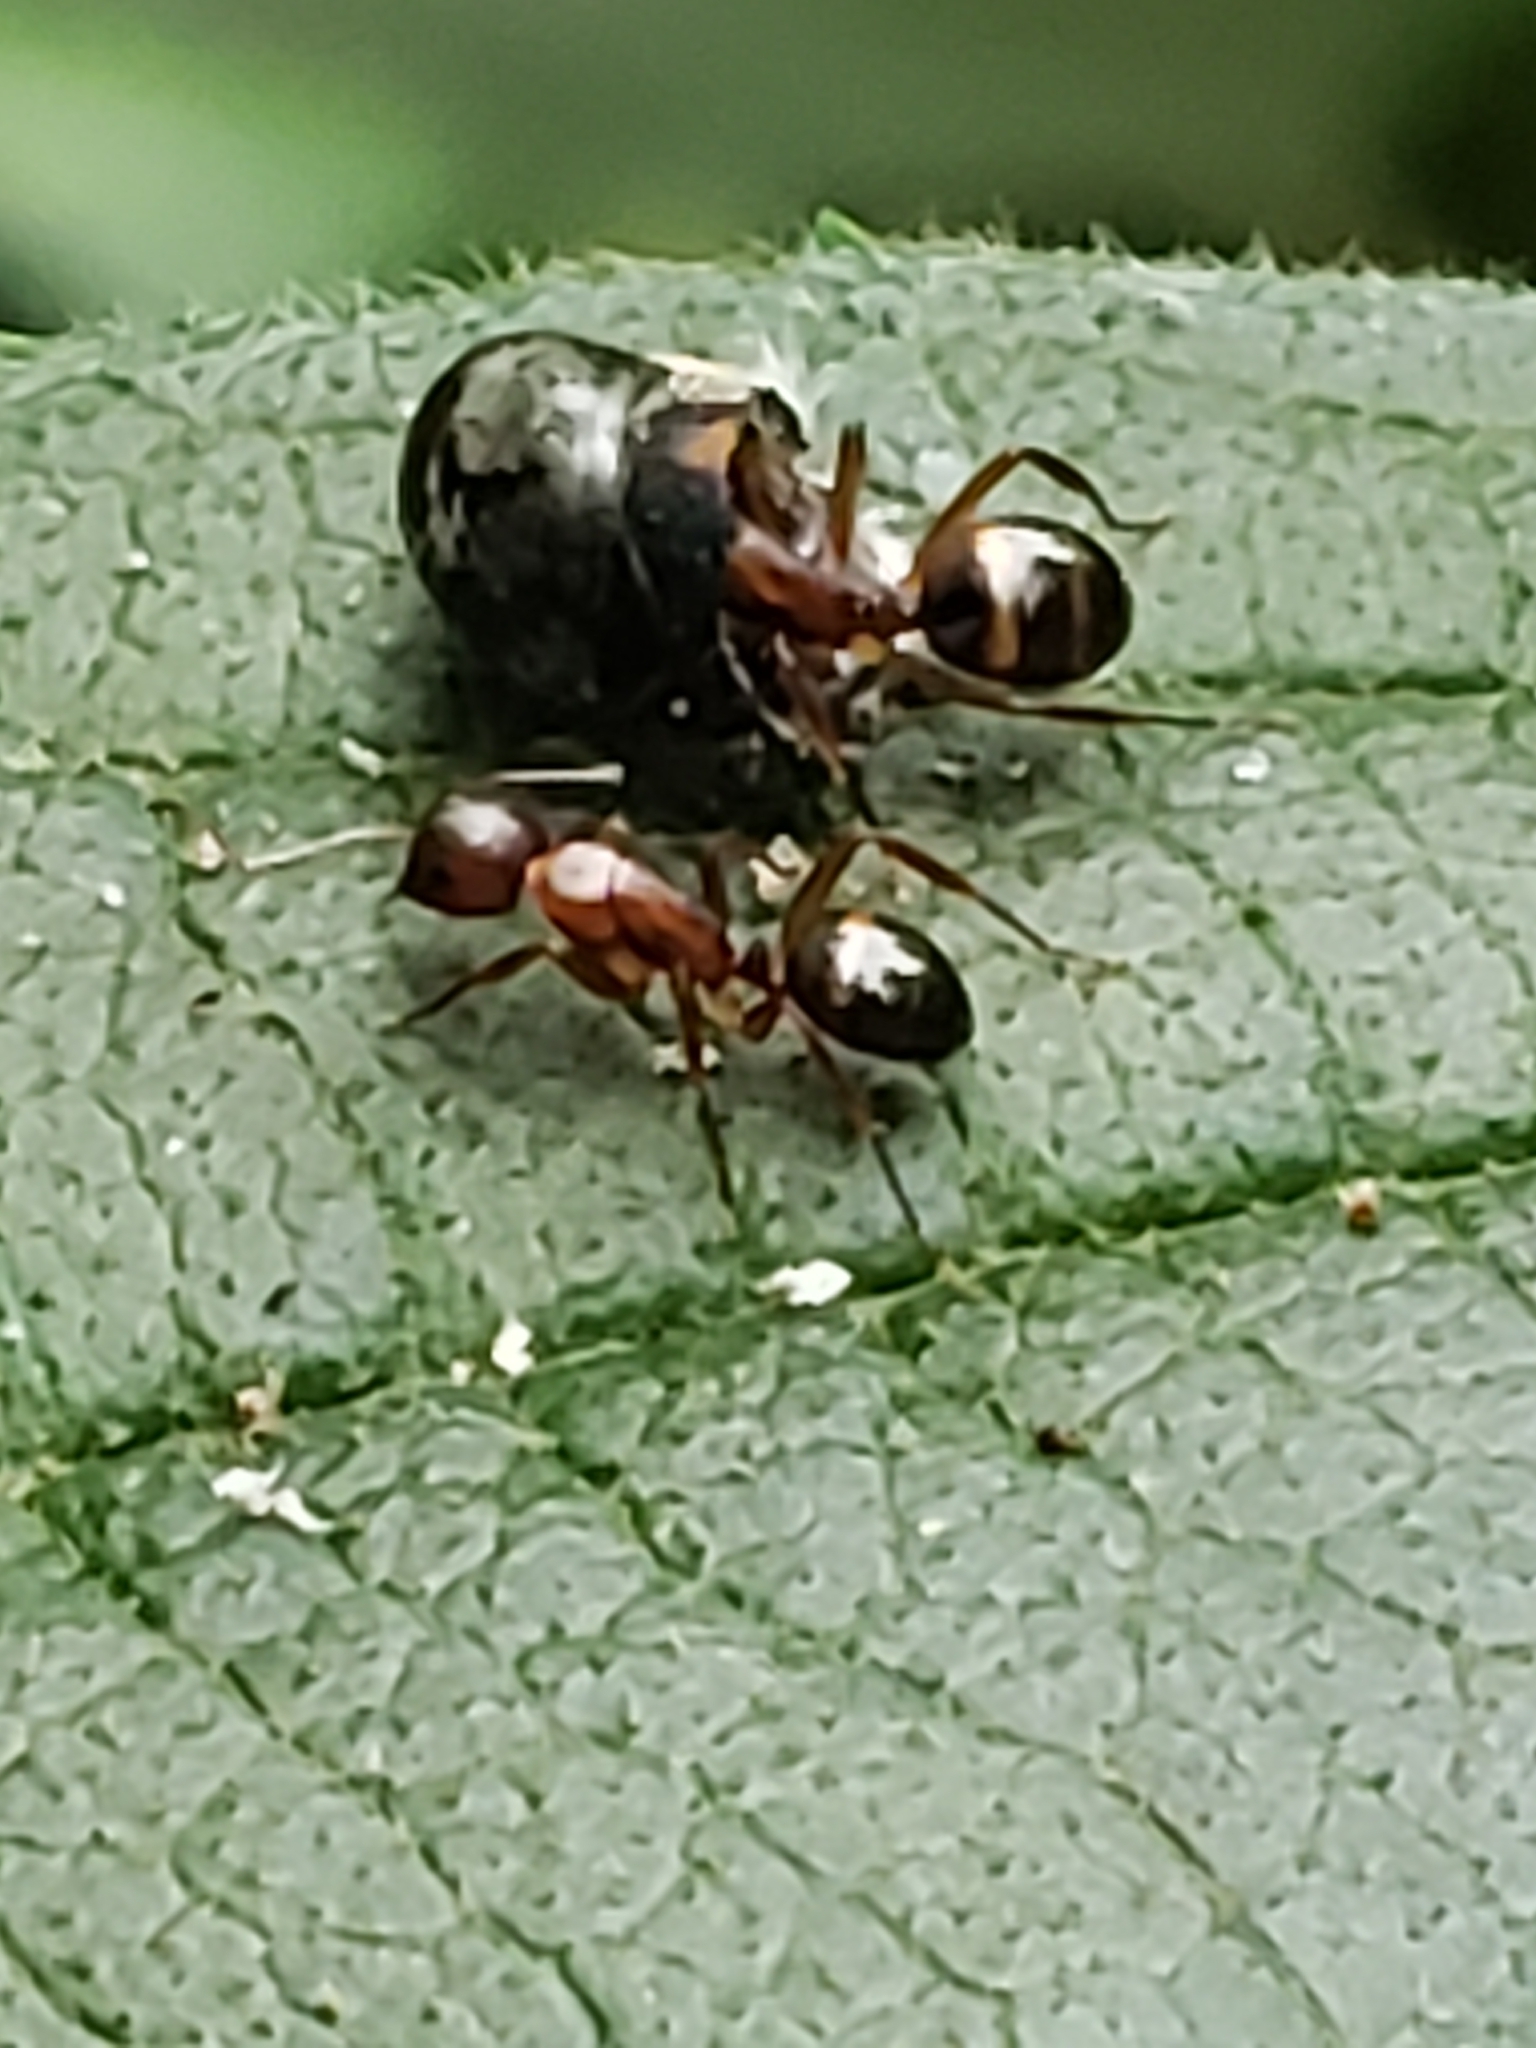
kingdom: Animalia
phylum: Arthropoda
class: Insecta
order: Hymenoptera
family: Formicidae
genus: Camponotus
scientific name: Camponotus subbarbatus
